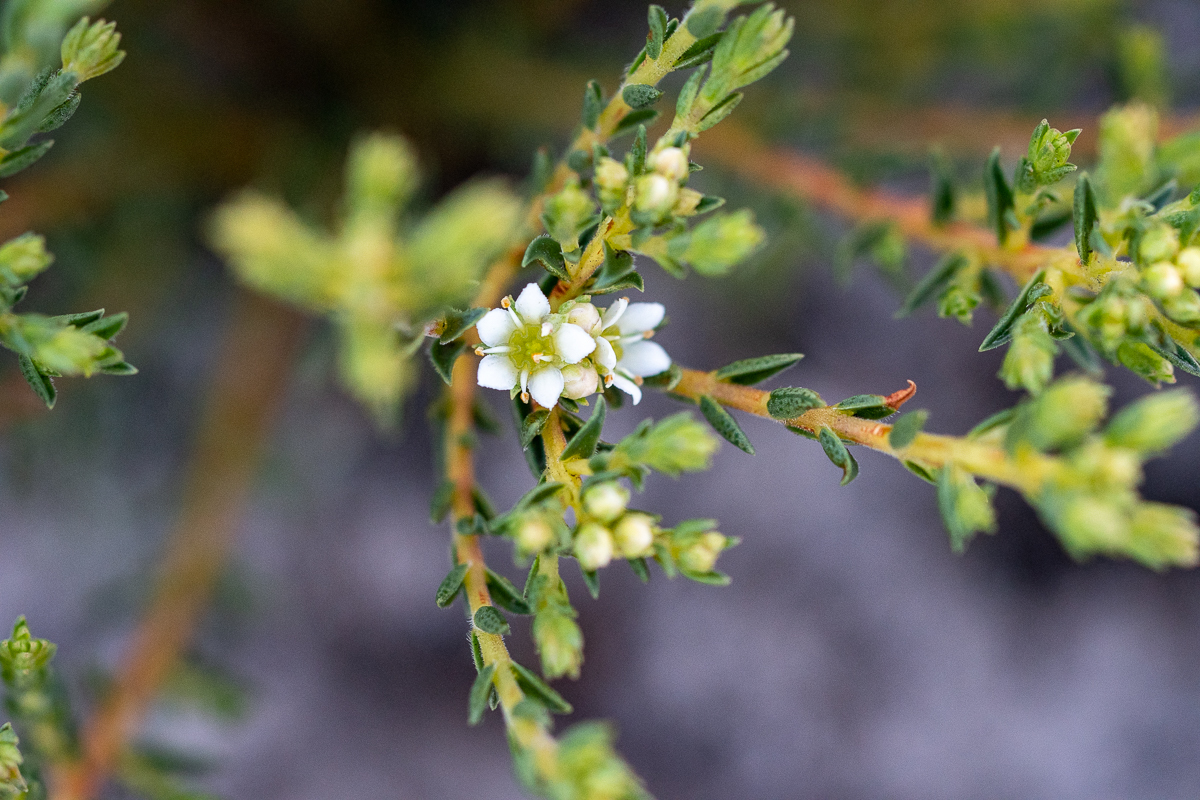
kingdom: Plantae
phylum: Tracheophyta
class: Magnoliopsida
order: Sapindales
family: Rutaceae
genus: Diosma
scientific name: Diosma oppositifolia
